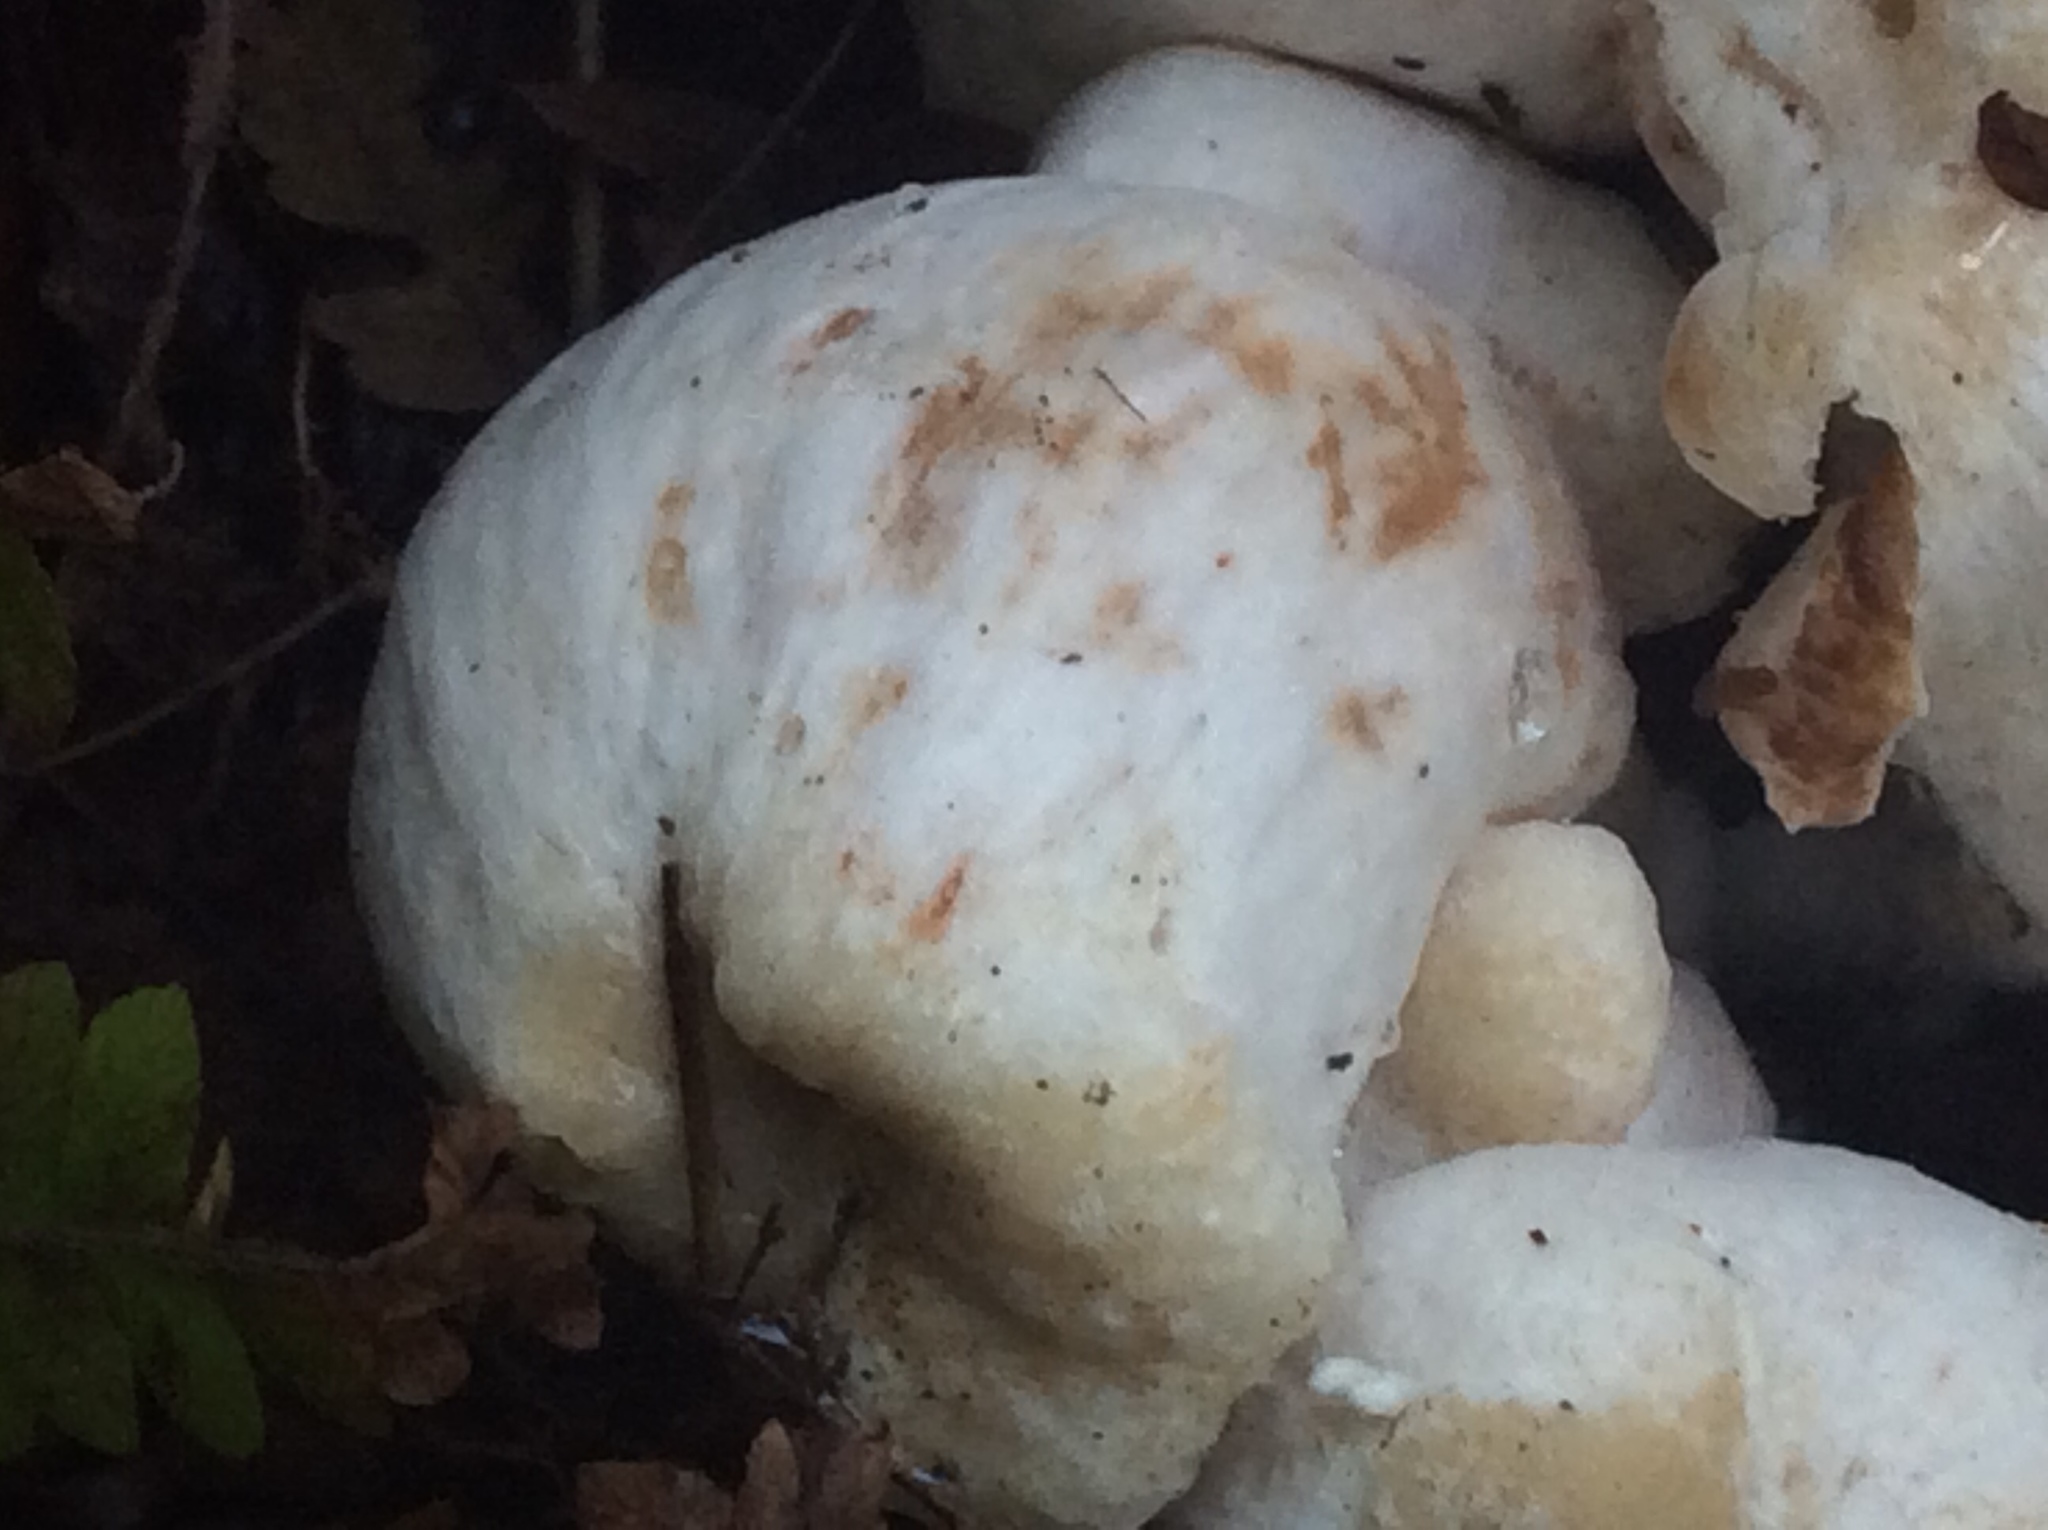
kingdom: Fungi
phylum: Basidiomycota
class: Agaricomycetes
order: Agaricales
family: Entolomataceae
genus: Entoloma
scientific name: Entoloma abortivum
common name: Aborted entoloma
